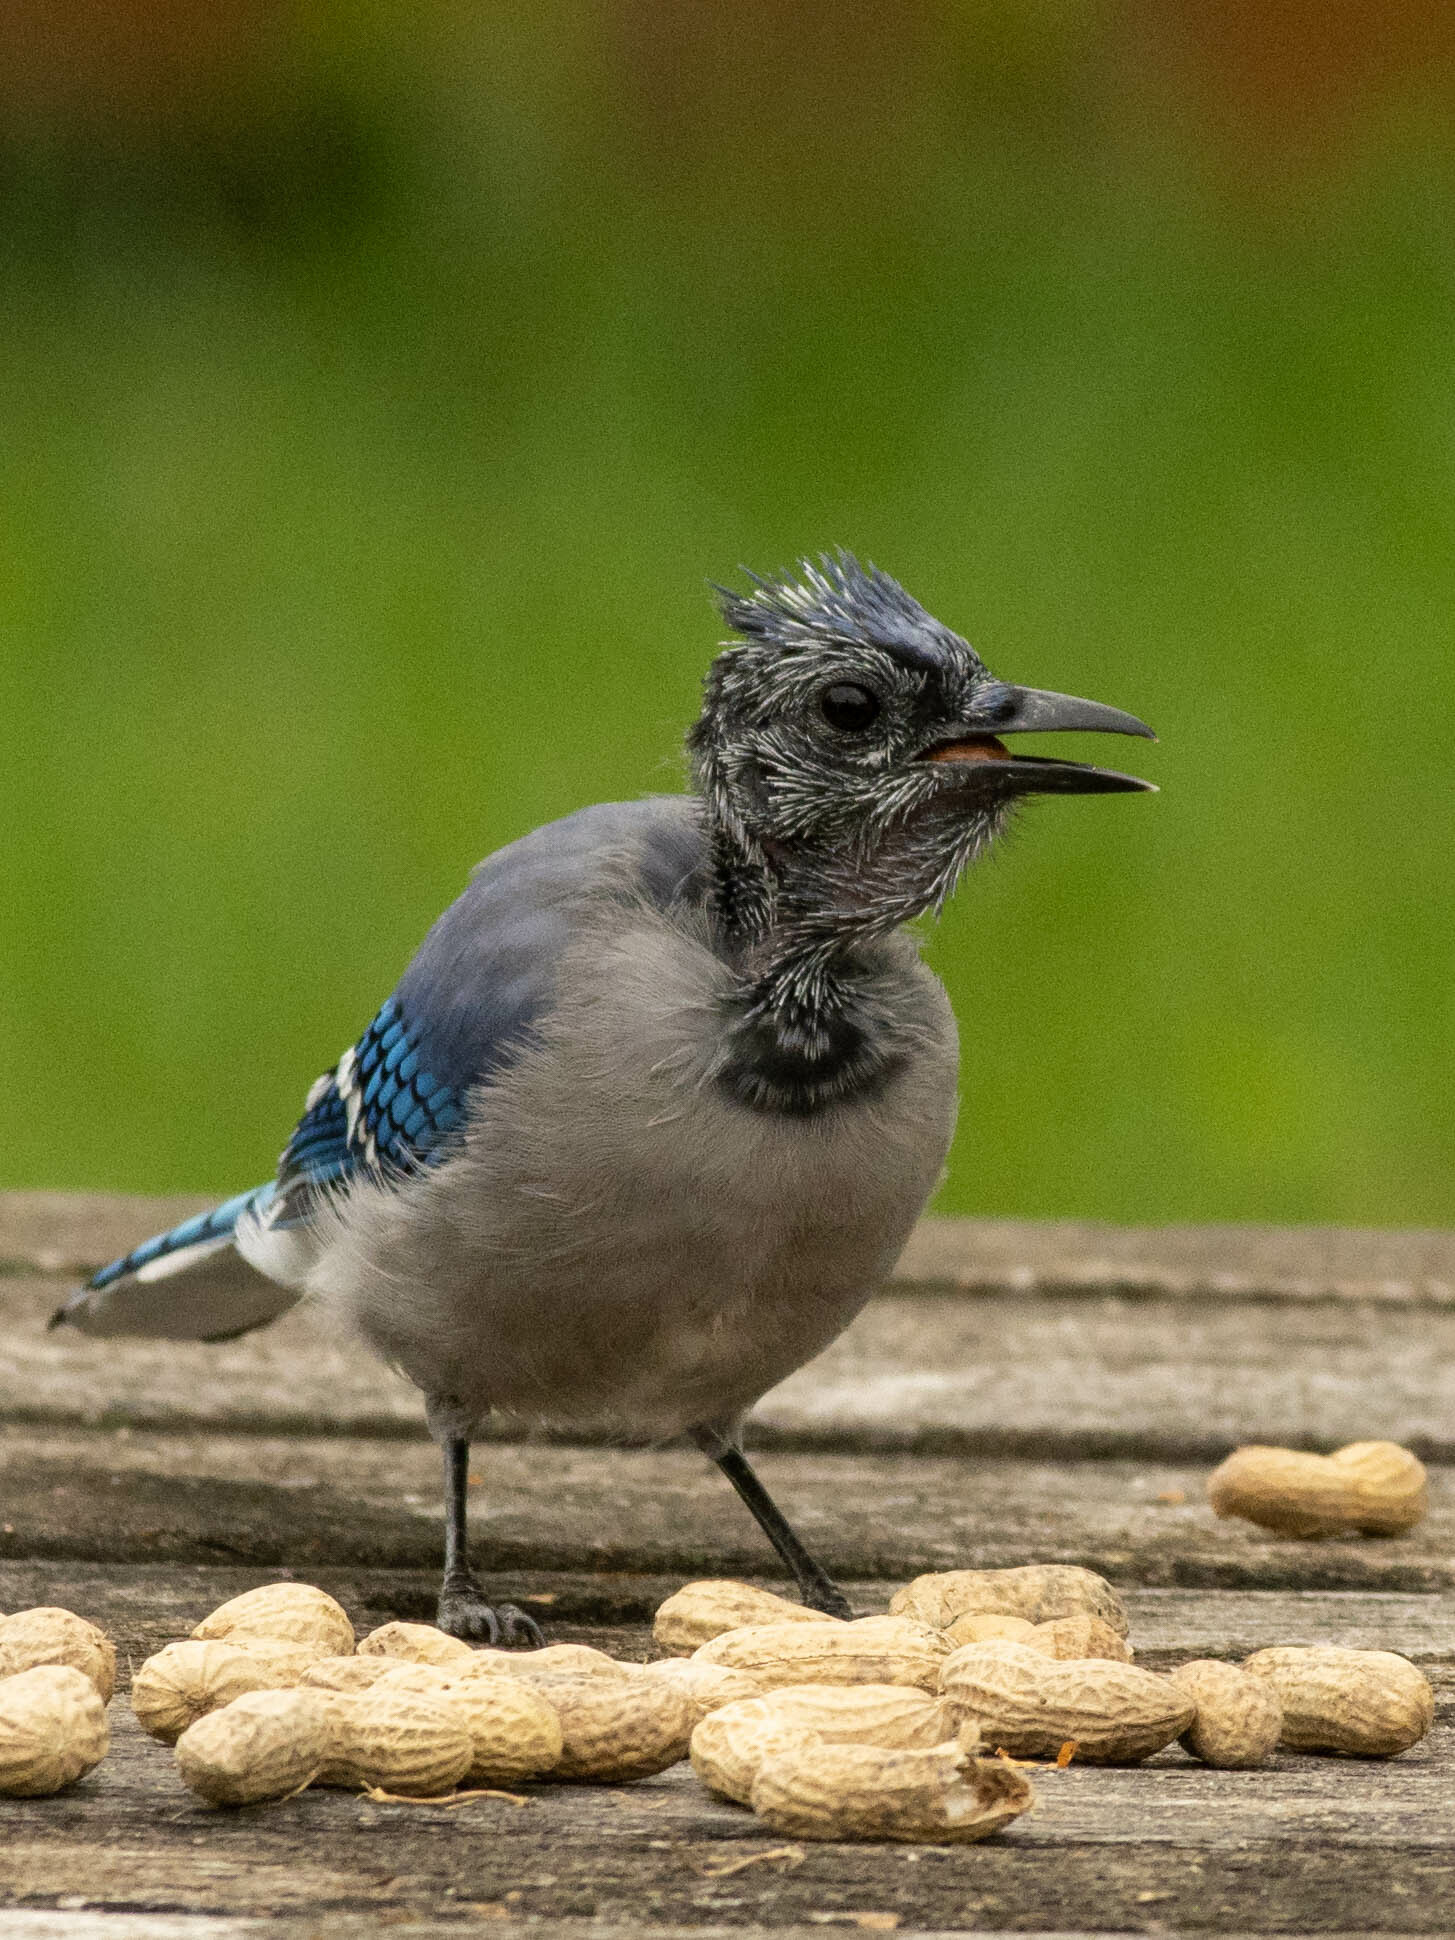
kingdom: Animalia
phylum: Chordata
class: Aves
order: Passeriformes
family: Corvidae
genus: Cyanocitta
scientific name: Cyanocitta cristata
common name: Blue jay
